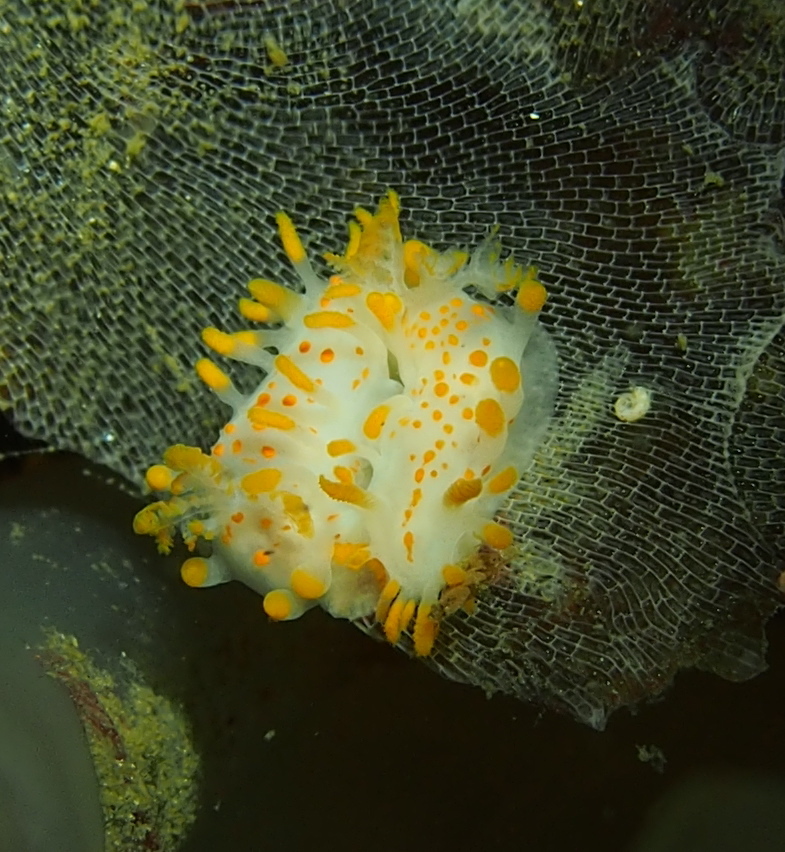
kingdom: Animalia
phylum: Mollusca
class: Gastropoda
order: Nudibranchia
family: Polyceridae
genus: Limacia
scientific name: Limacia clavigera
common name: Orange-clubbed sea slug
